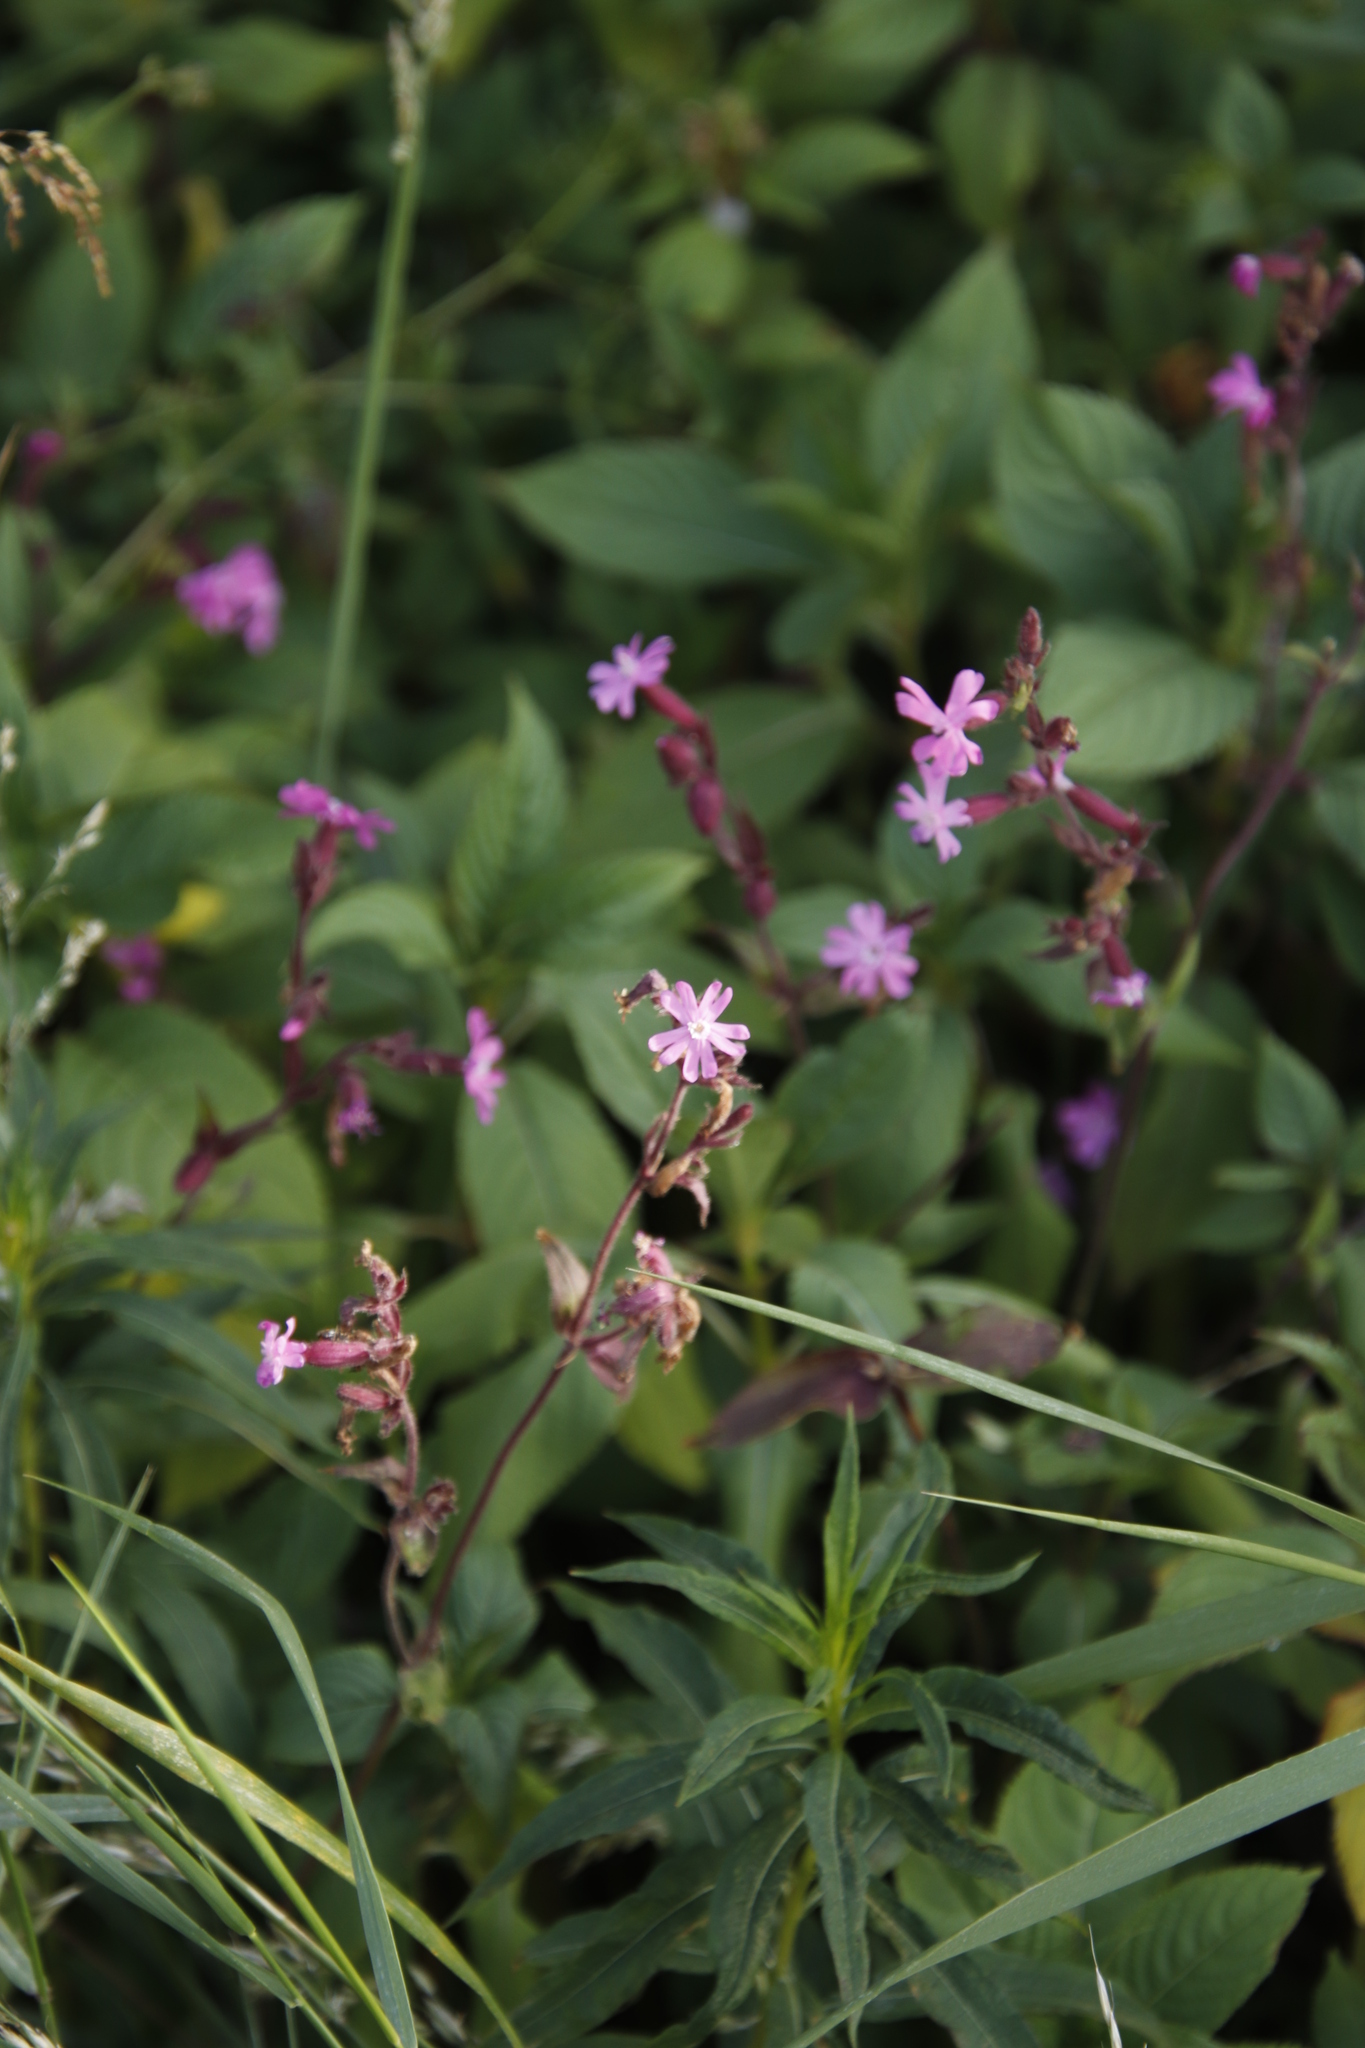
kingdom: Plantae
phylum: Tracheophyta
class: Magnoliopsida
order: Caryophyllales
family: Caryophyllaceae
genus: Silene
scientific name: Silene dioica
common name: Red campion
